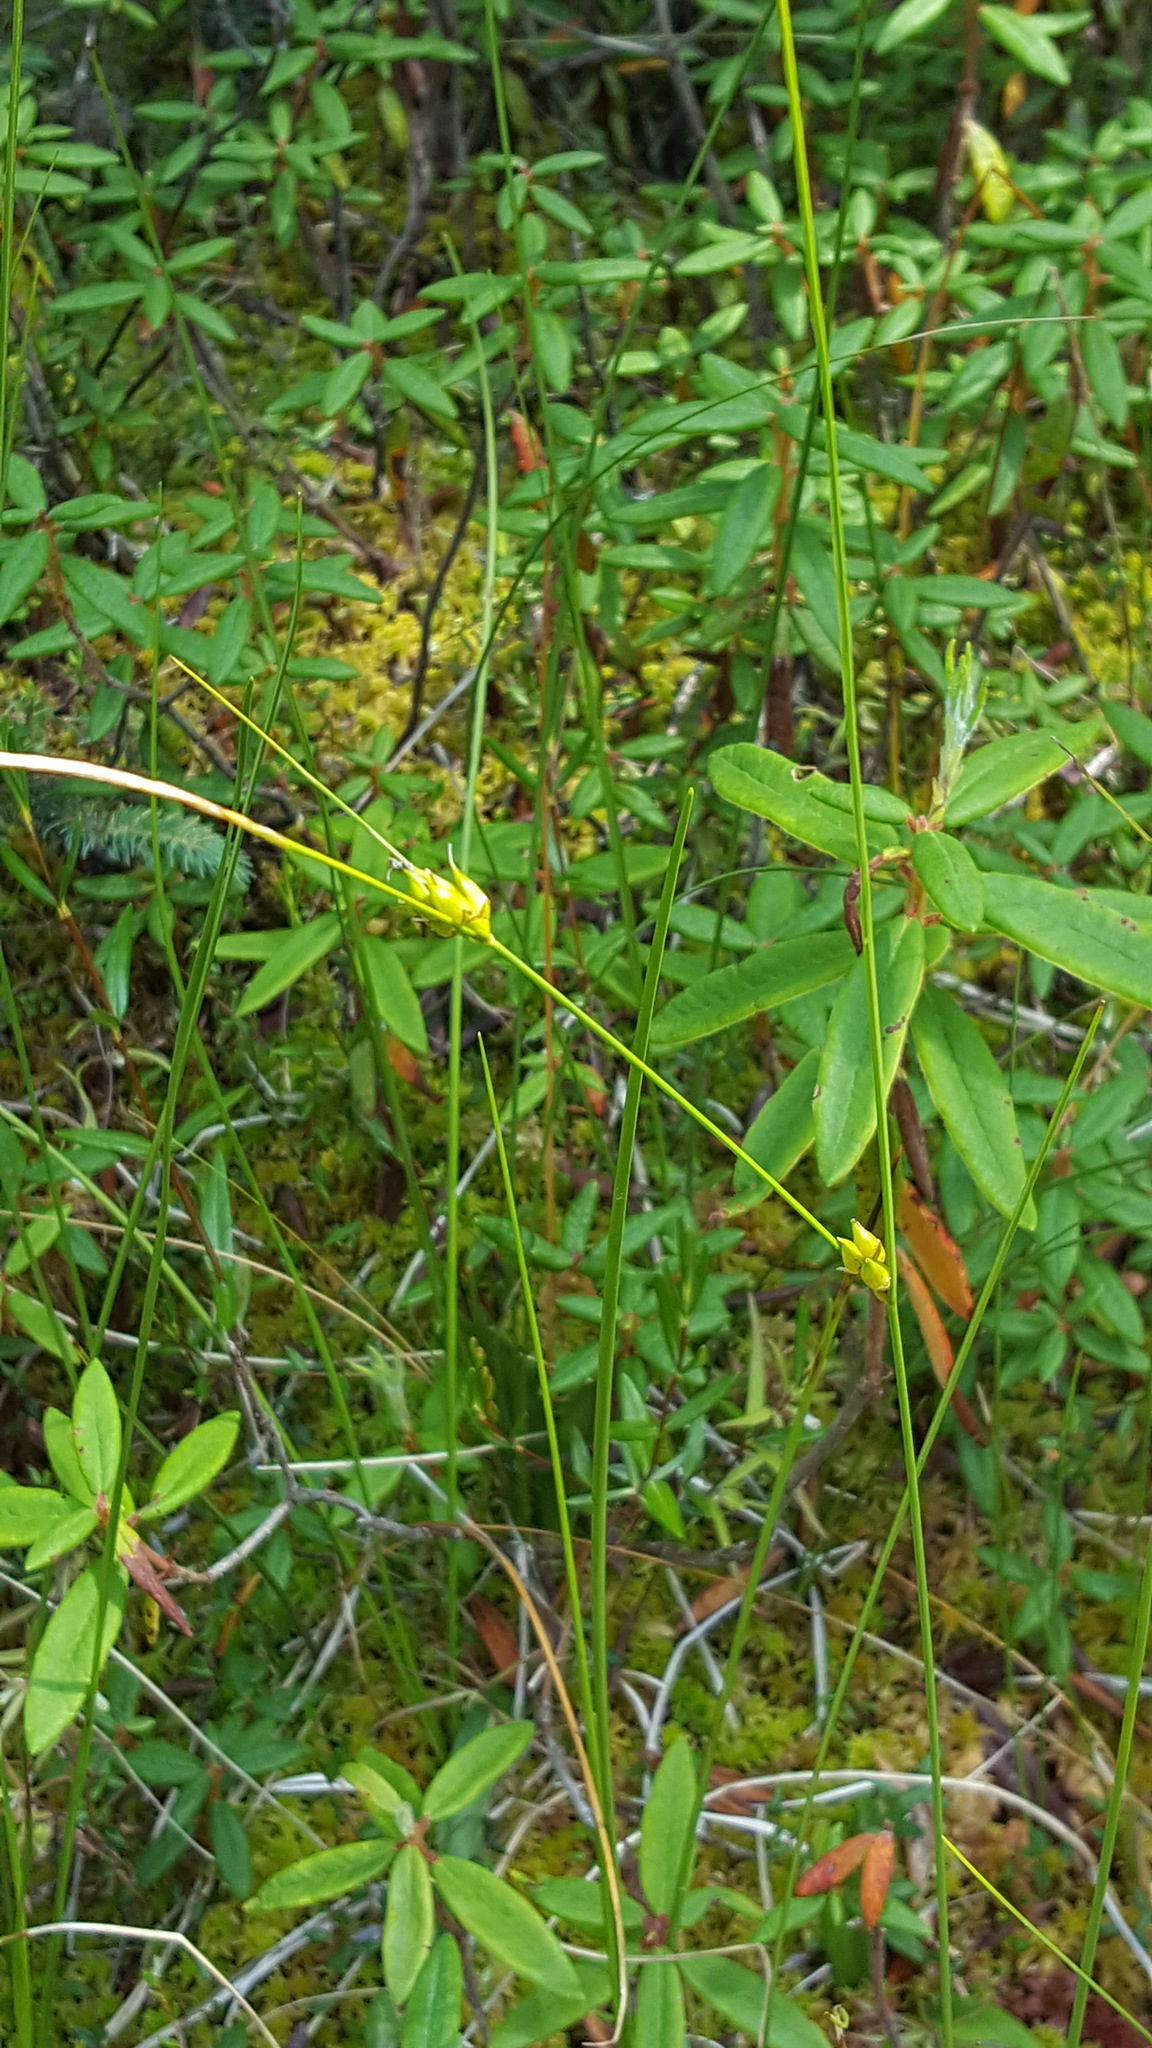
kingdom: Plantae
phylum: Tracheophyta
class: Liliopsida
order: Poales
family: Cyperaceae
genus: Carex
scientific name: Carex oligosperma
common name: Few-seed sedge
